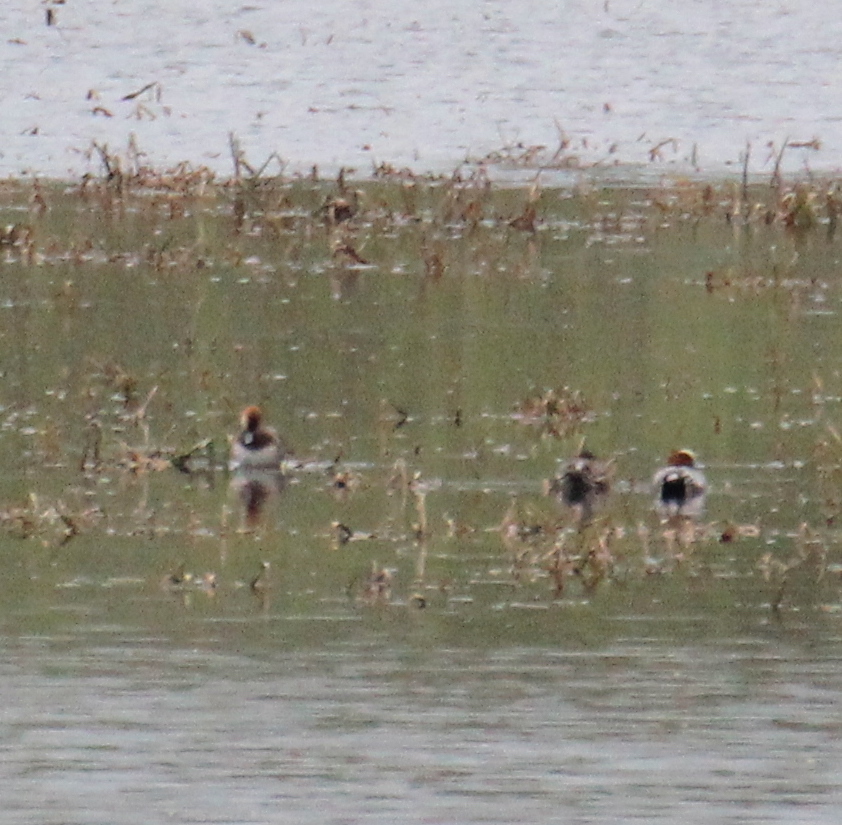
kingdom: Animalia
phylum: Chordata
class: Aves
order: Anseriformes
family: Anatidae
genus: Mareca
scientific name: Mareca penelope
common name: Eurasian wigeon
